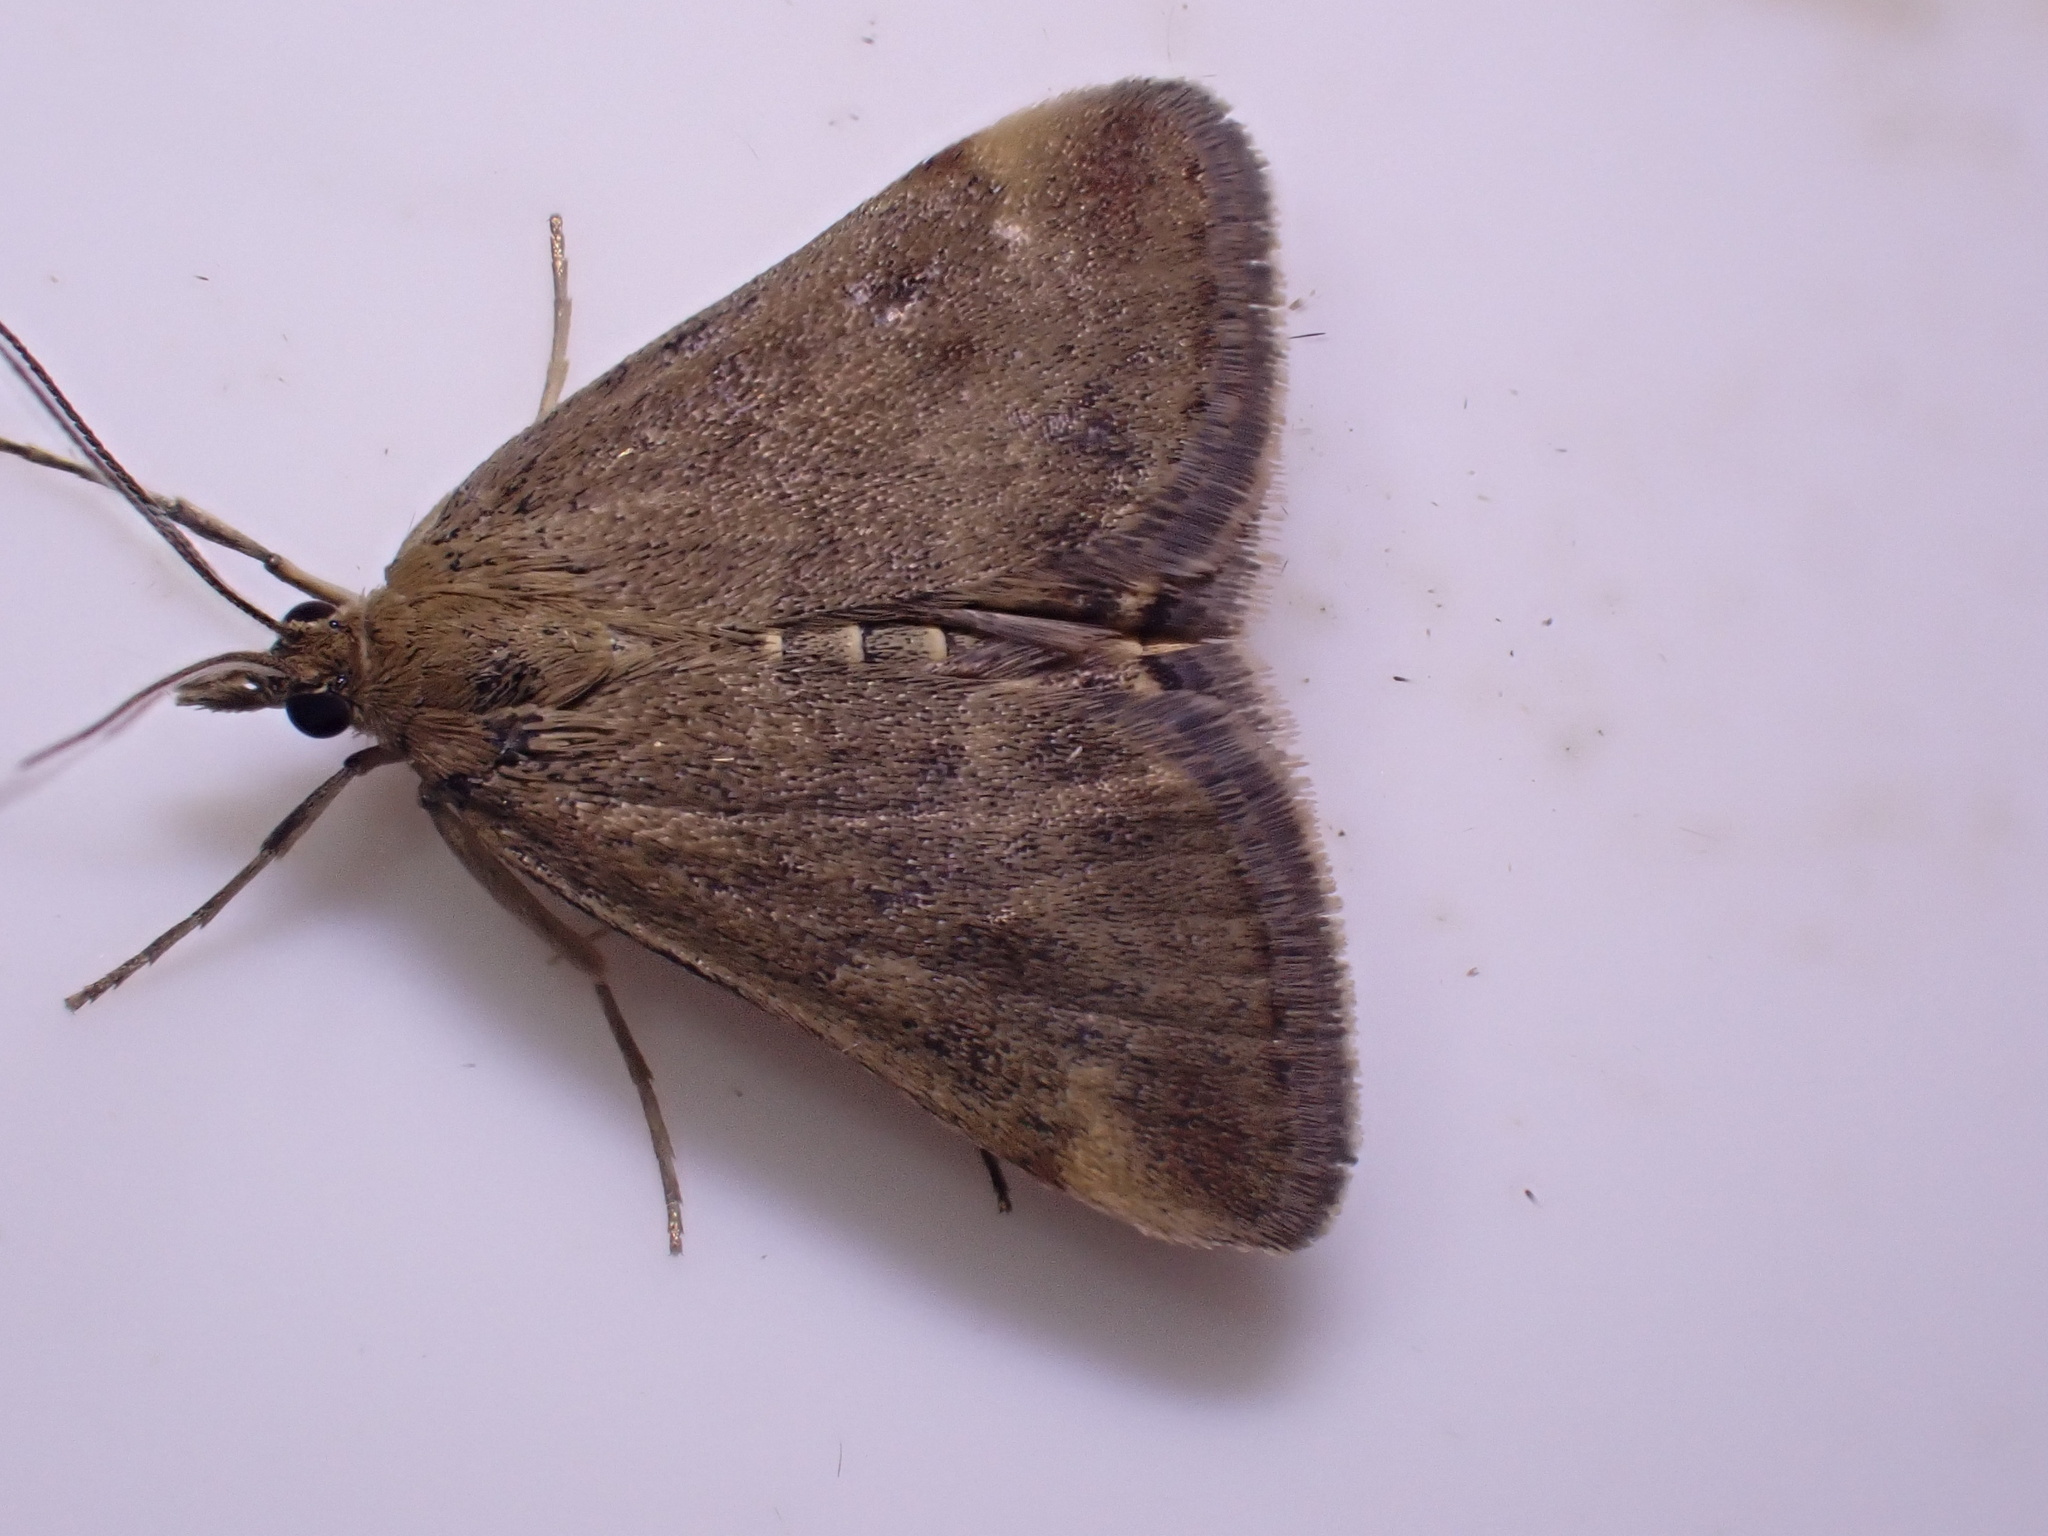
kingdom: Animalia
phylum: Arthropoda
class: Insecta
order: Lepidoptera
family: Crambidae
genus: Pyrausta
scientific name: Pyrausta despicata
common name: Straw-barred pearl
